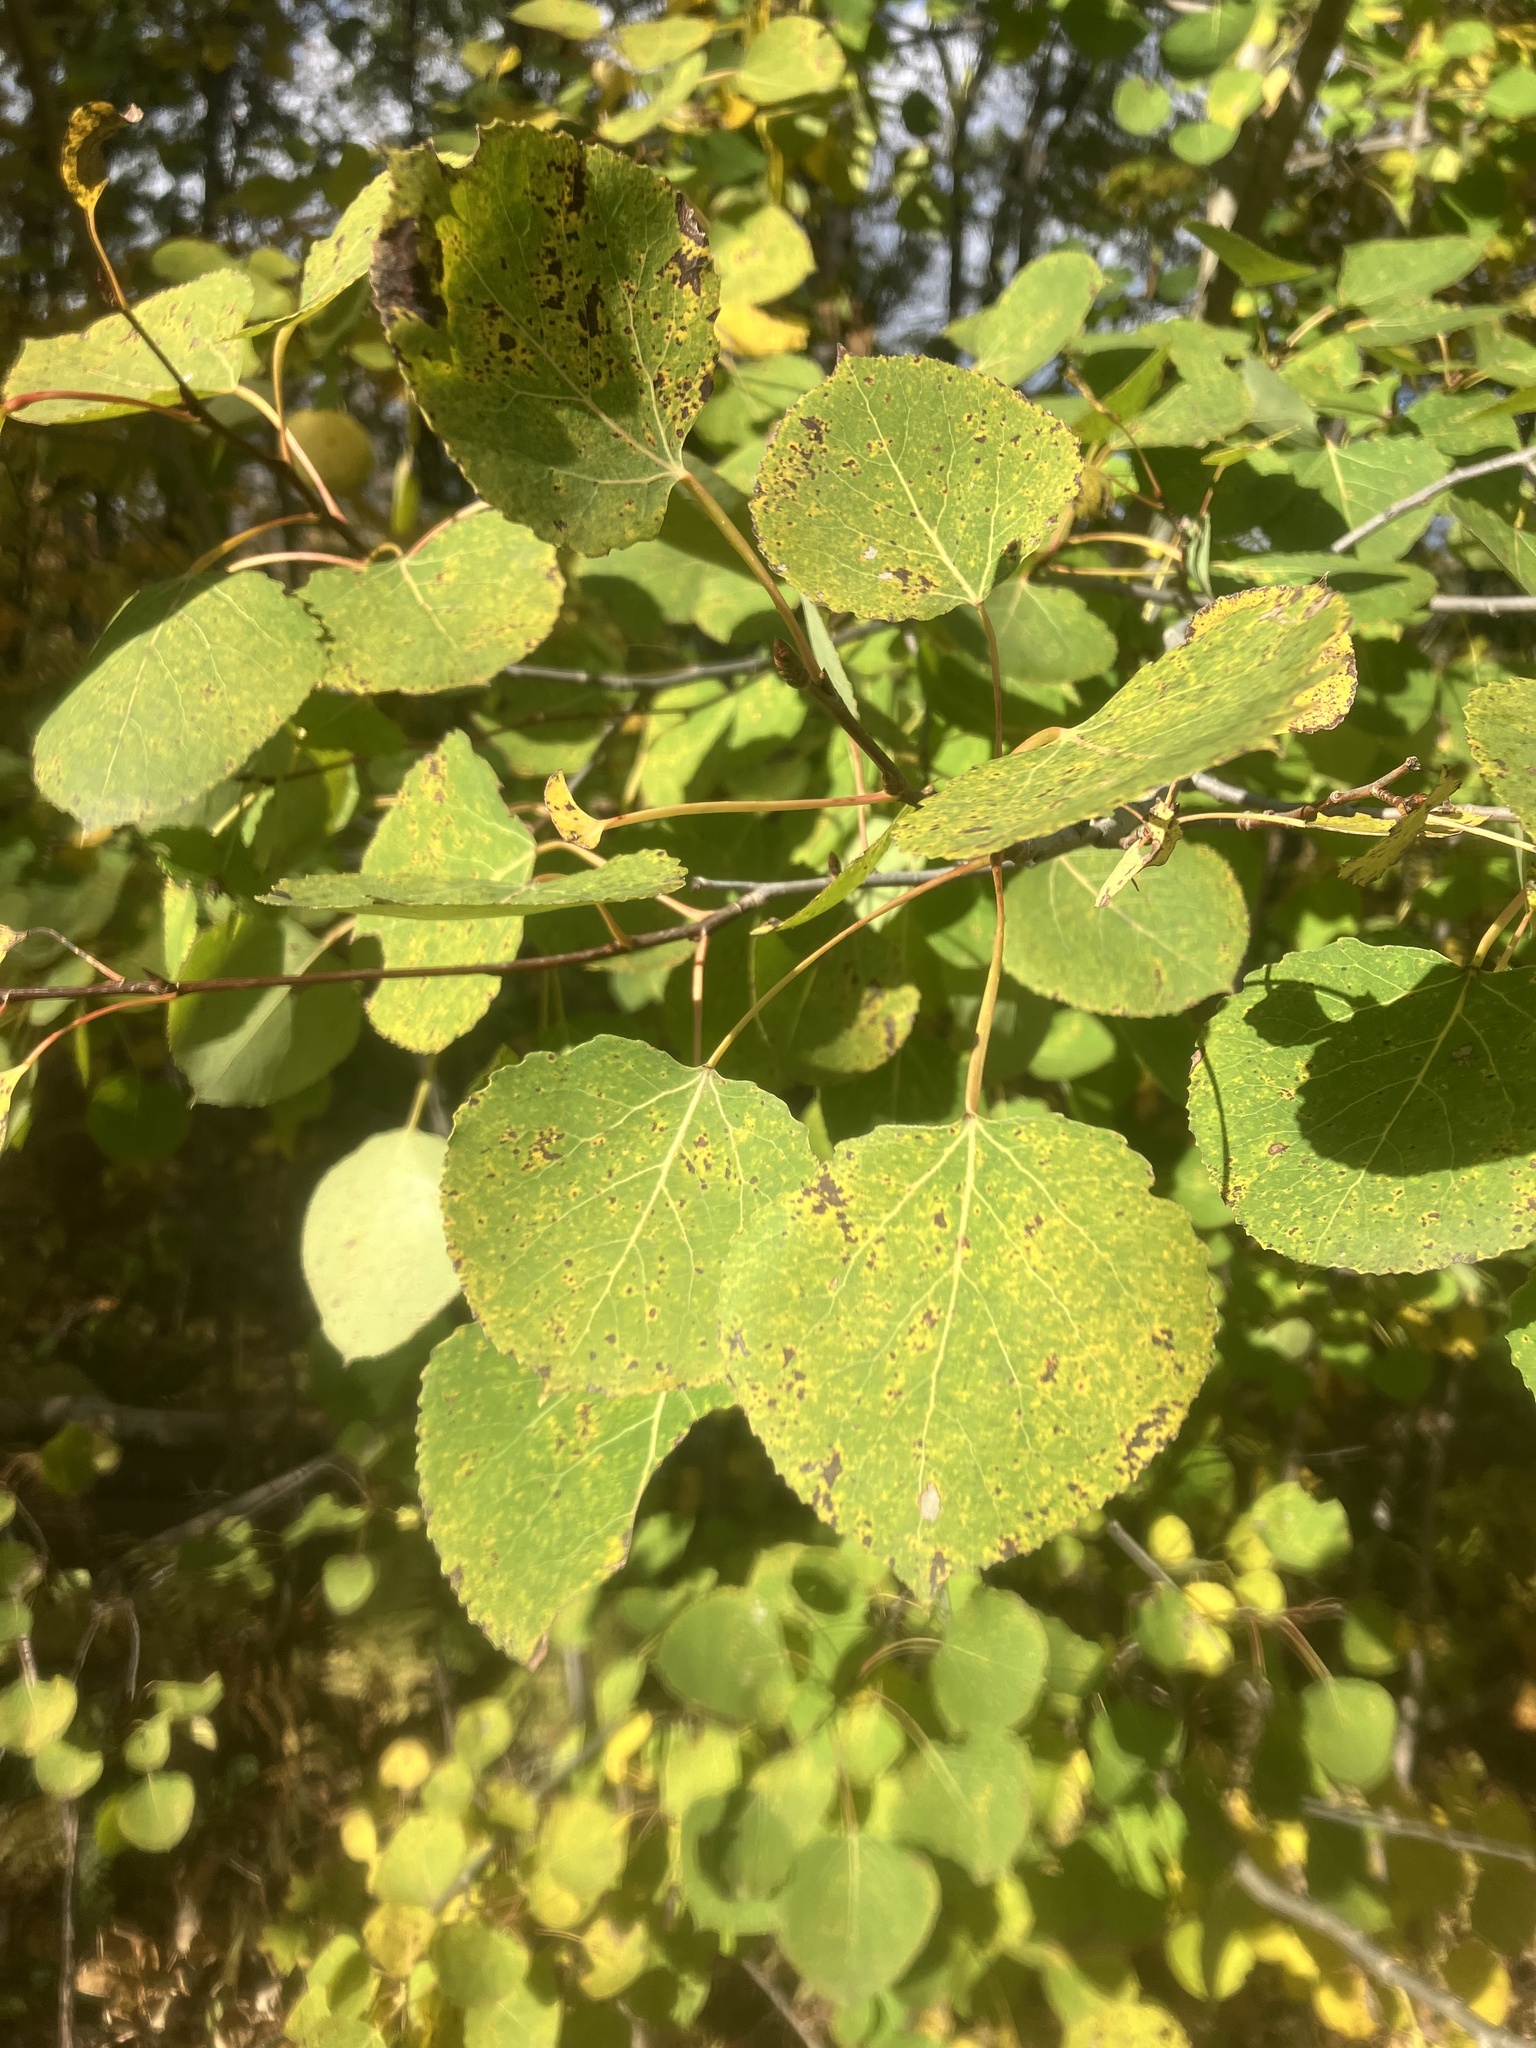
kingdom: Plantae
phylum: Tracheophyta
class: Magnoliopsida
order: Malpighiales
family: Salicaceae
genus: Populus
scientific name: Populus tremuloides
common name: Quaking aspen
